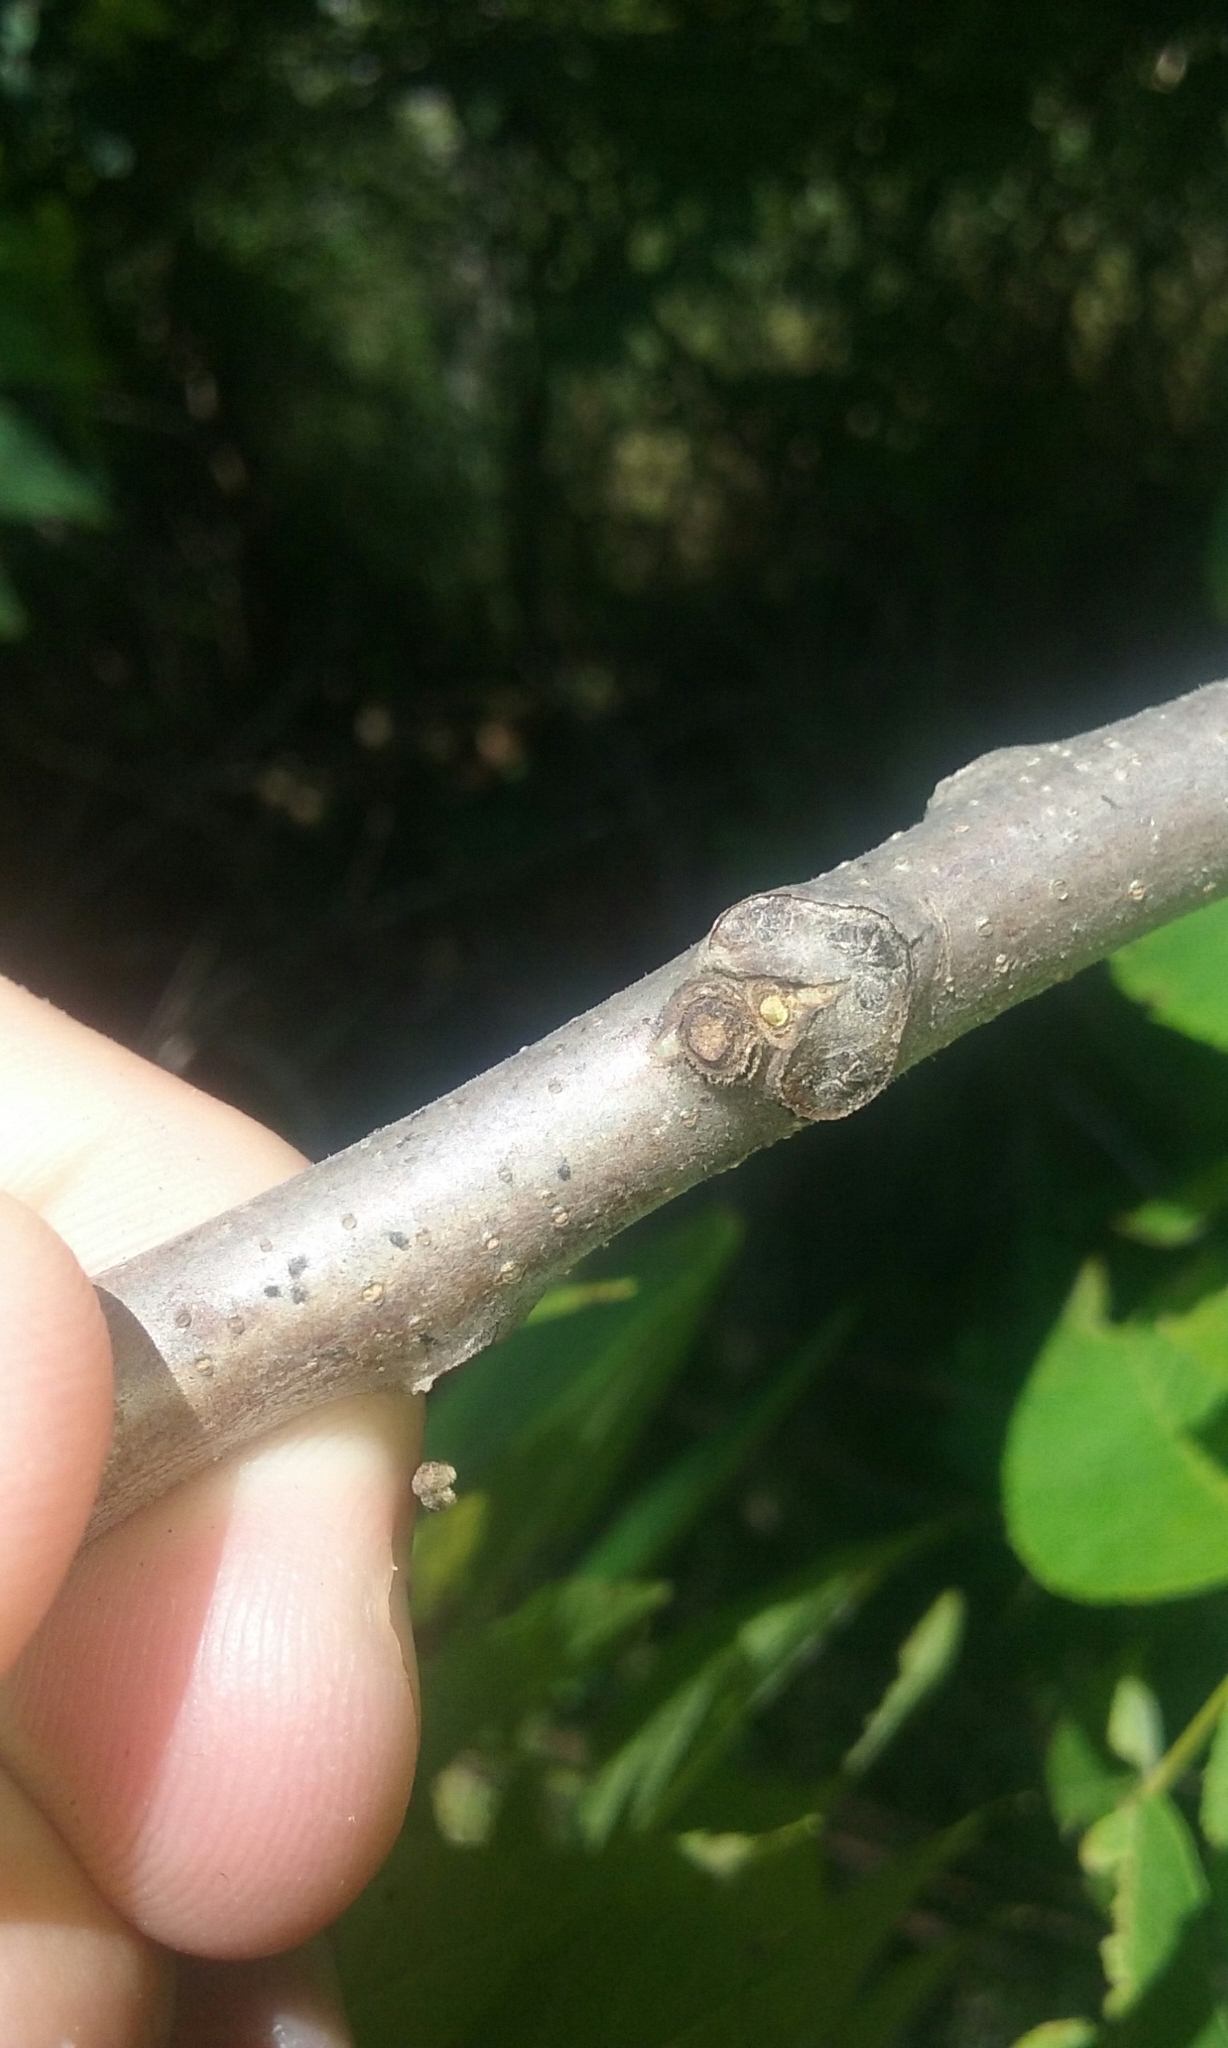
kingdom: Plantae
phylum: Tracheophyta
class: Magnoliopsida
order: Fagales
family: Juglandaceae
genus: Juglans
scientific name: Juglans nigra
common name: Black walnut
